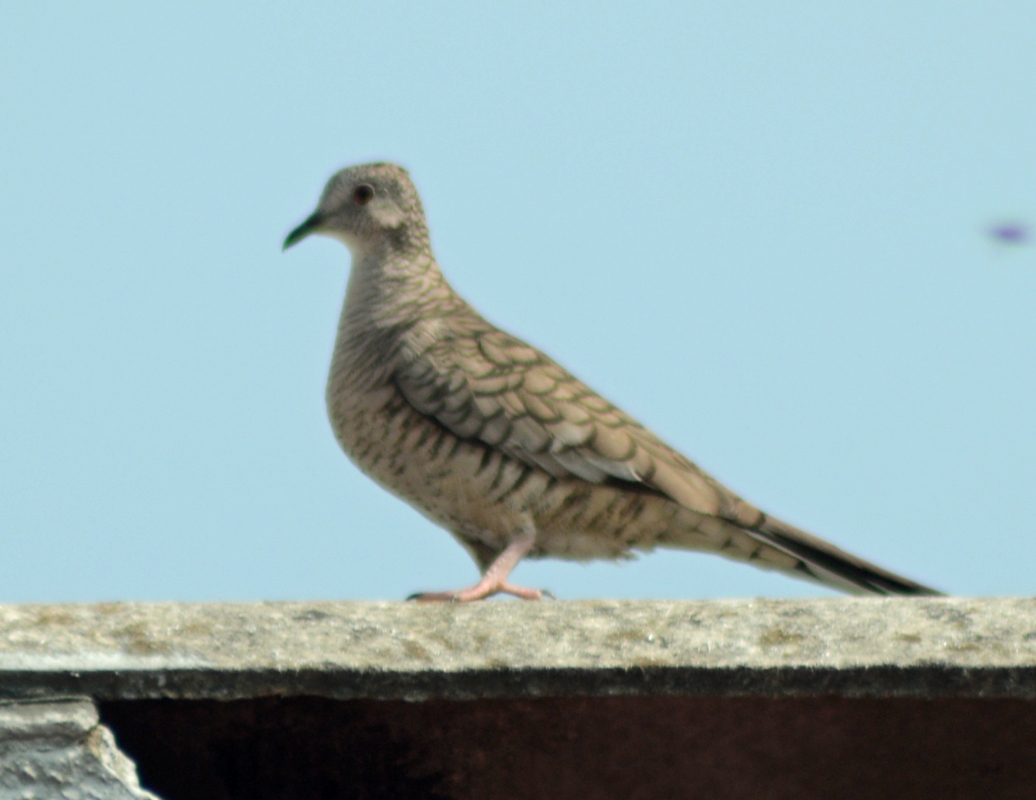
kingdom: Animalia
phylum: Chordata
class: Aves
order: Columbiformes
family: Columbidae
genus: Columbina
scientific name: Columbina inca
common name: Inca dove
